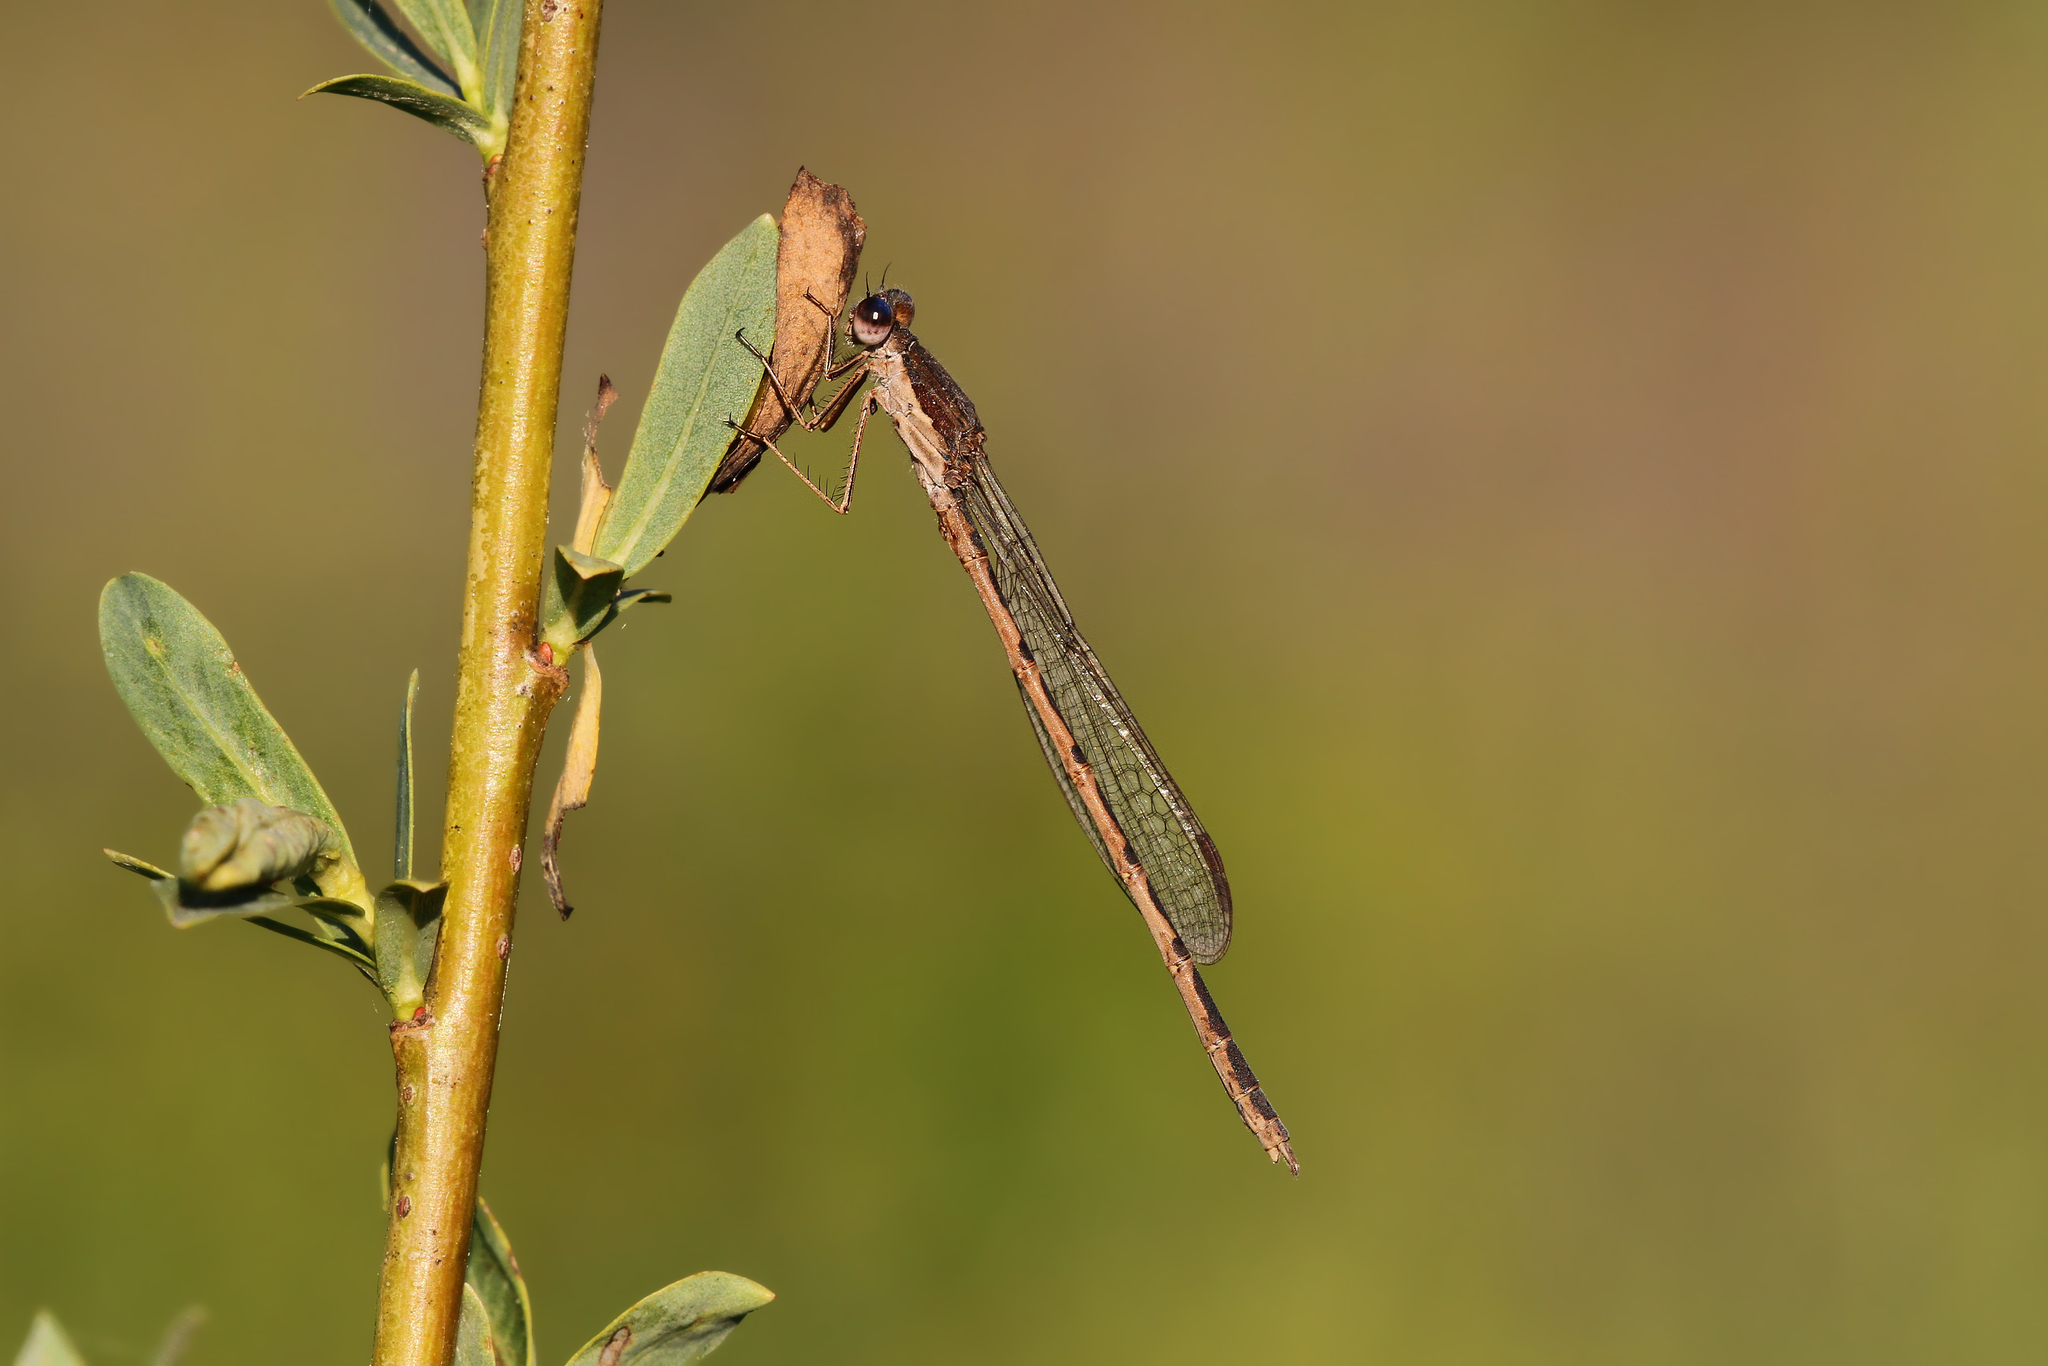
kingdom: Animalia
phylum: Arthropoda
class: Insecta
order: Odonata
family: Lestidae
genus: Sympecma
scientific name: Sympecma fusca
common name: Common winter damsel
